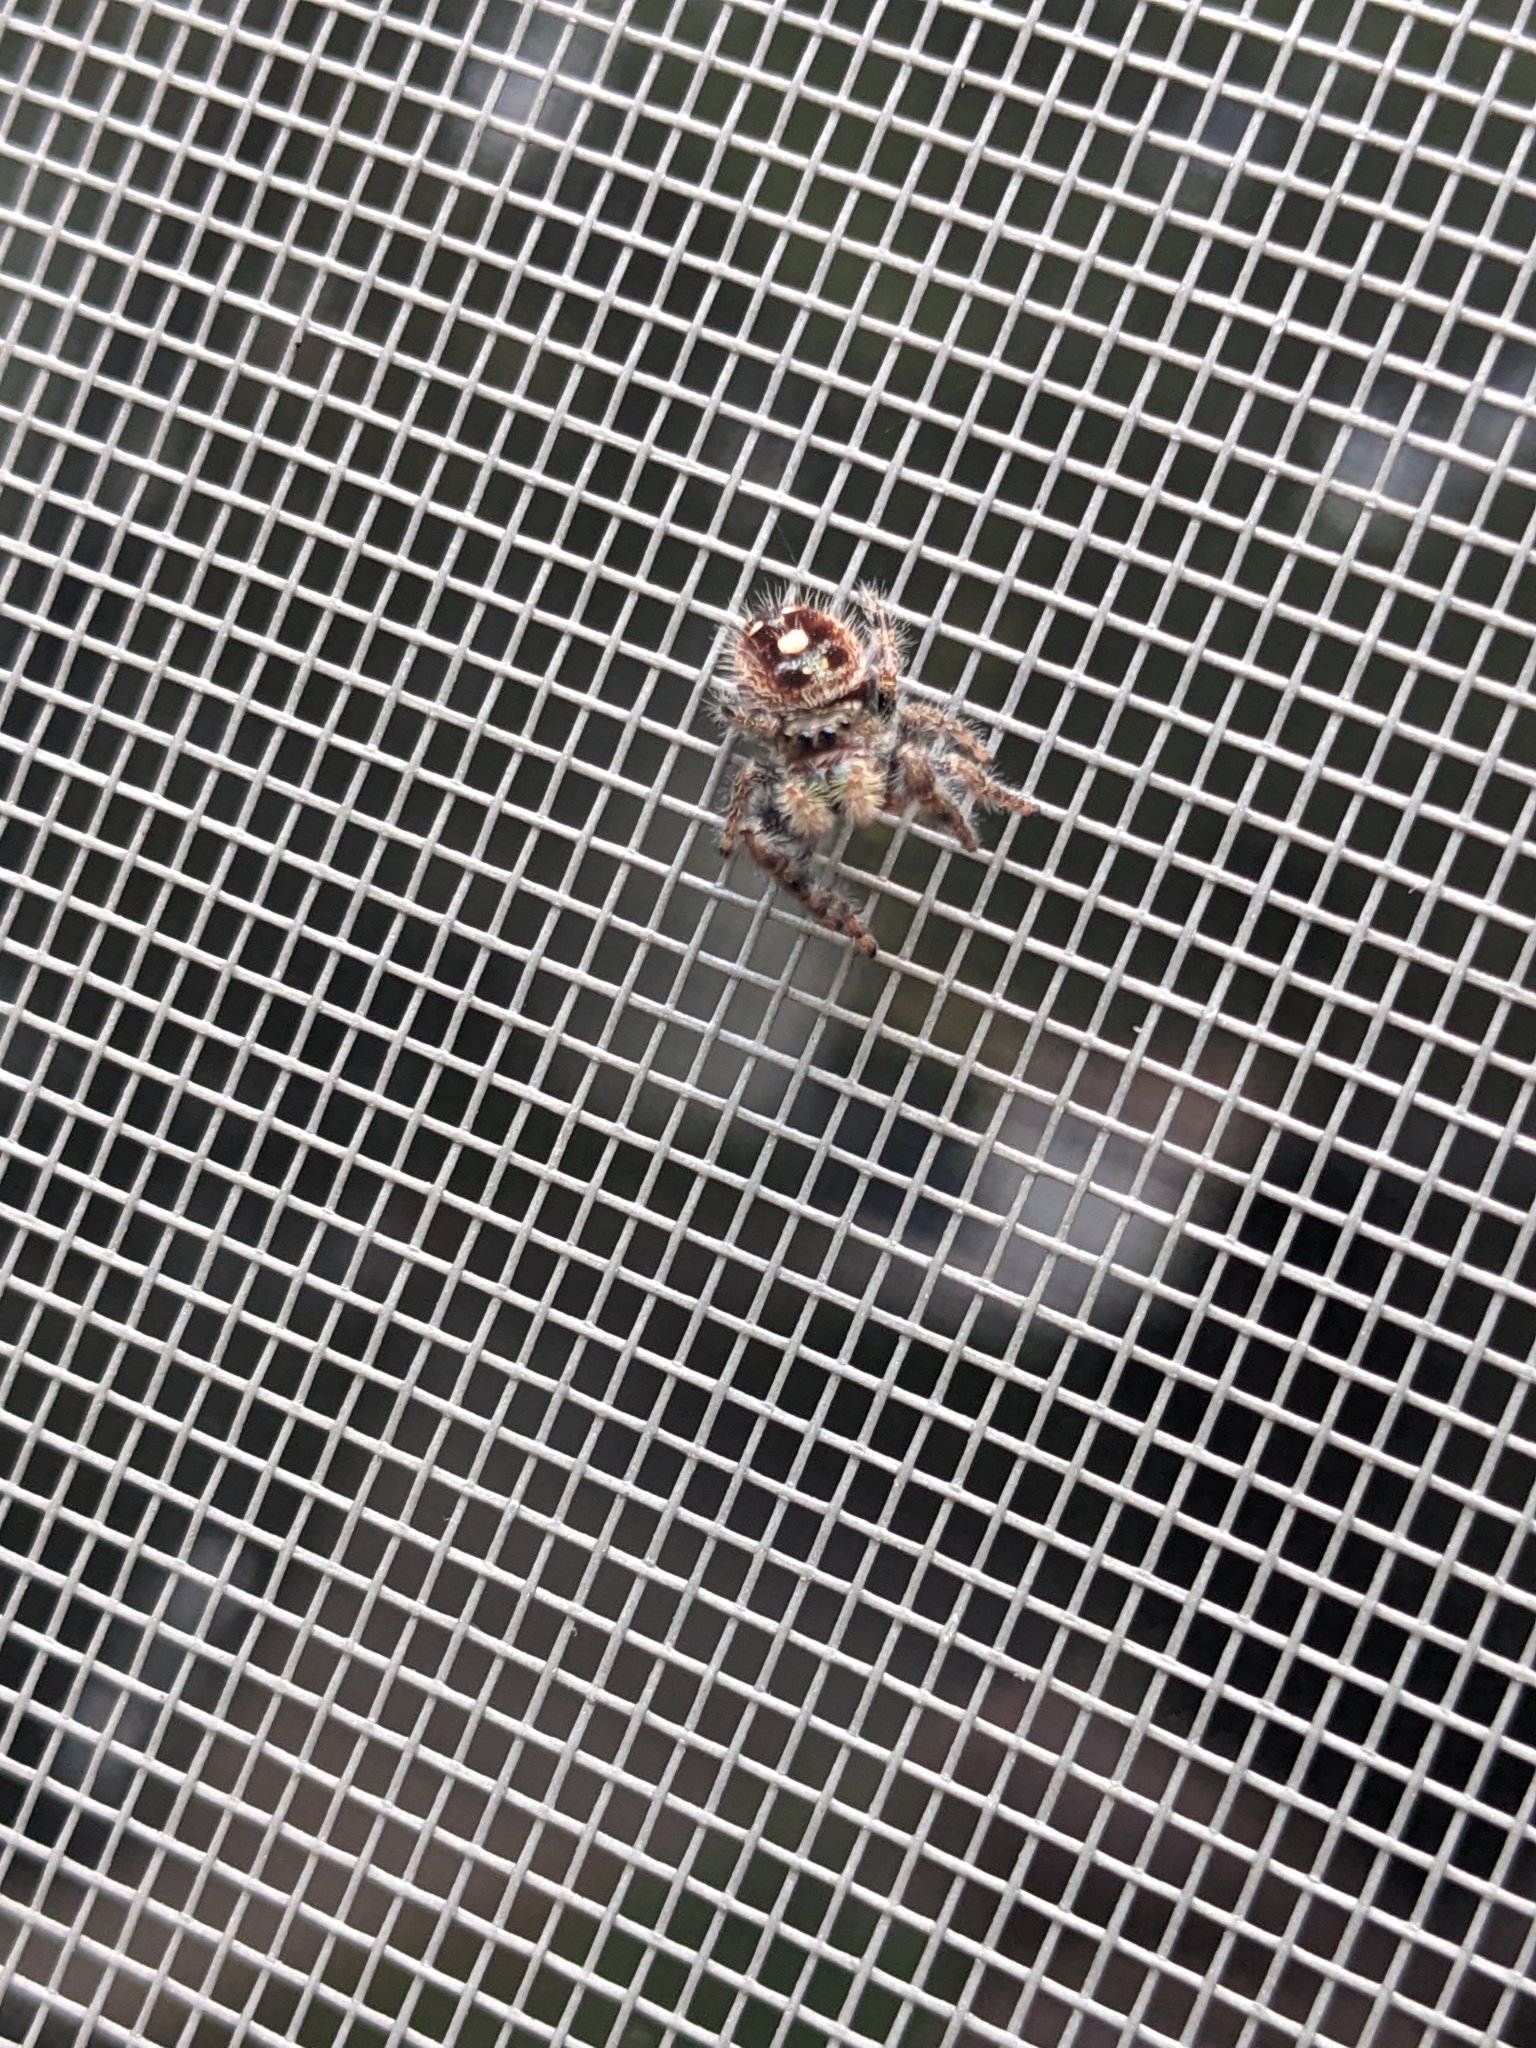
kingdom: Animalia
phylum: Arthropoda
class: Arachnida
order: Araneae
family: Salticidae
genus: Phidippus
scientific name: Phidippus audax
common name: Bold jumper
